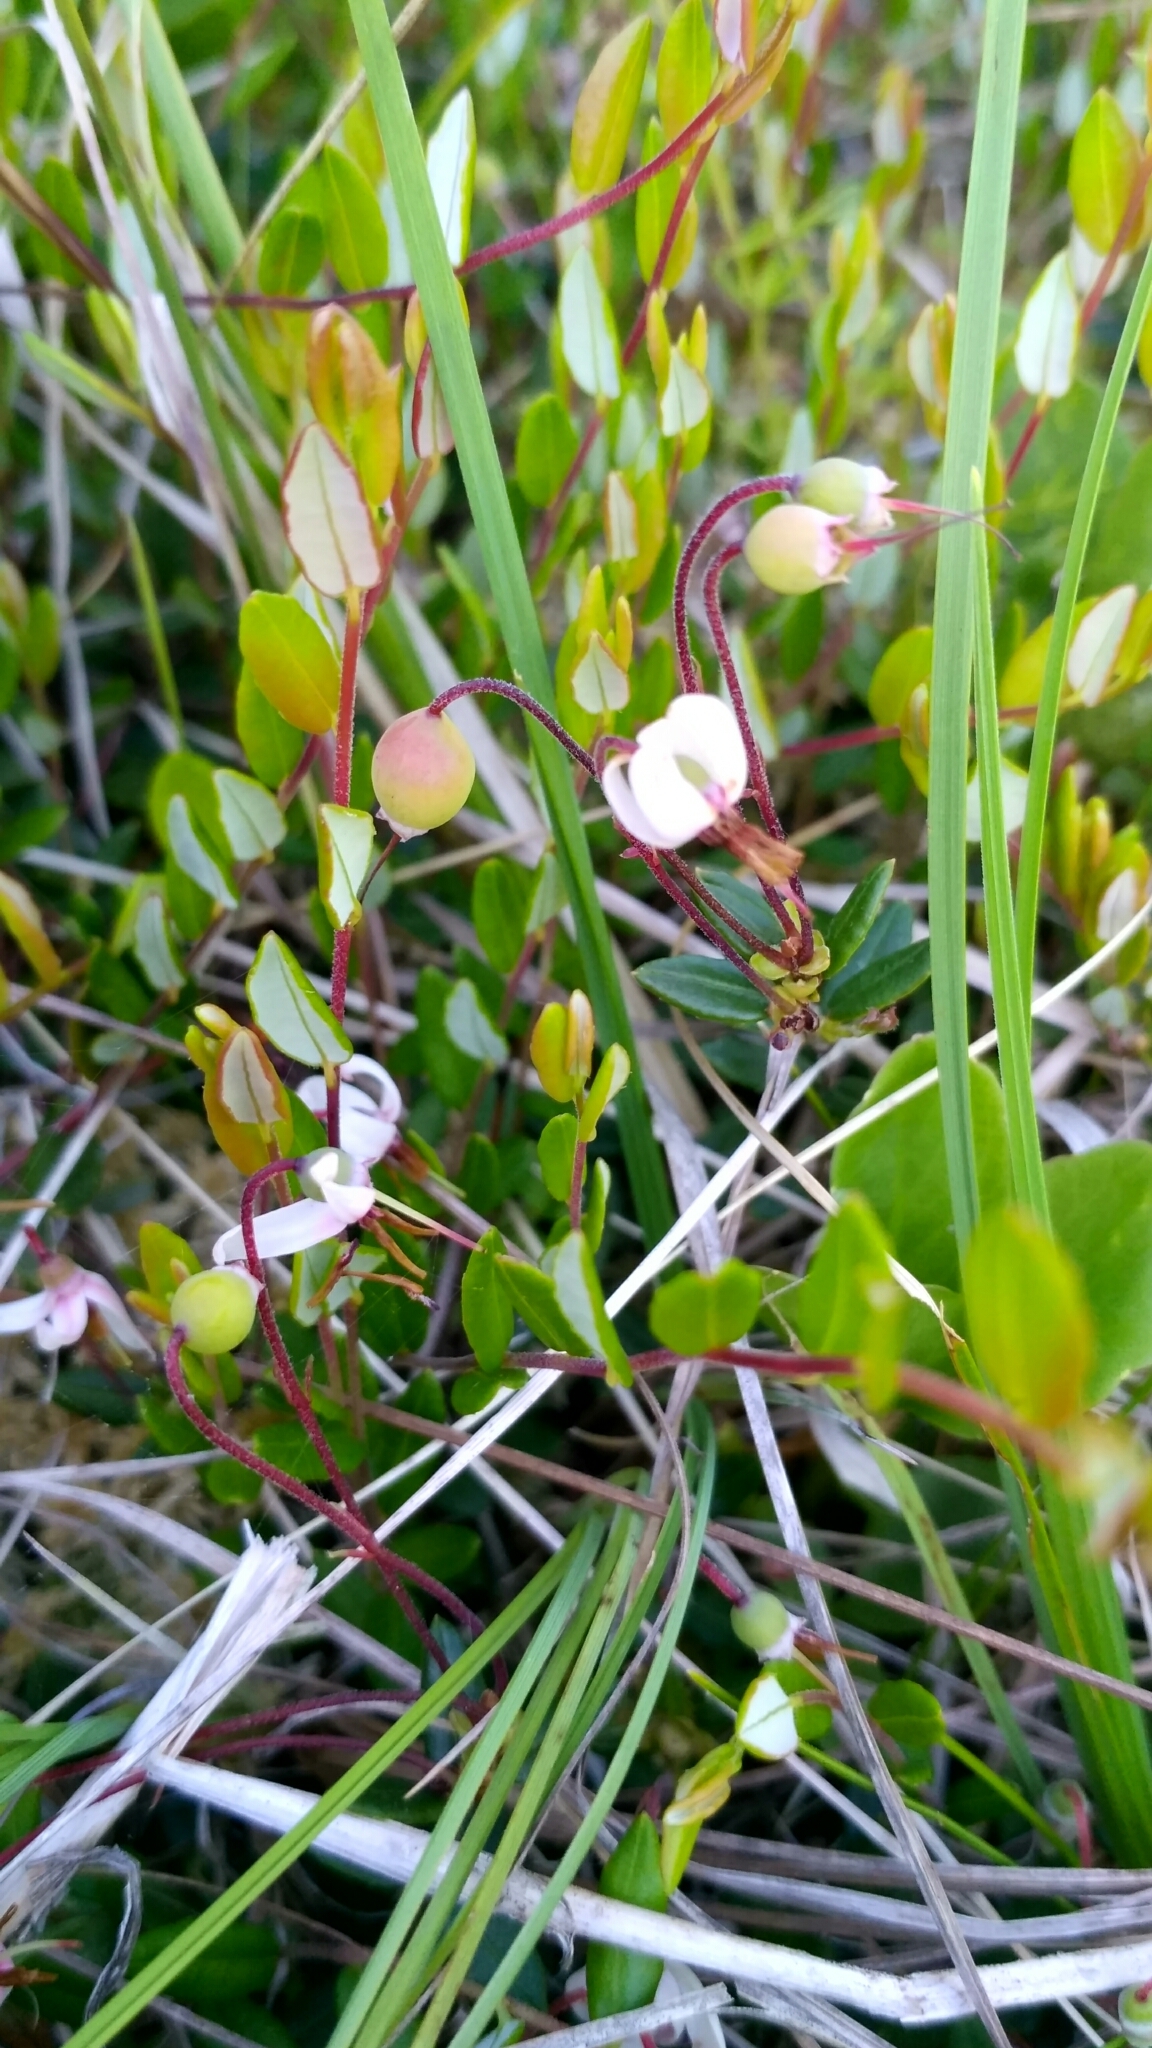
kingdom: Plantae
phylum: Tracheophyta
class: Magnoliopsida
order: Ericales
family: Ericaceae
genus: Vaccinium
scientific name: Vaccinium oxycoccos
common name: Cranberry
